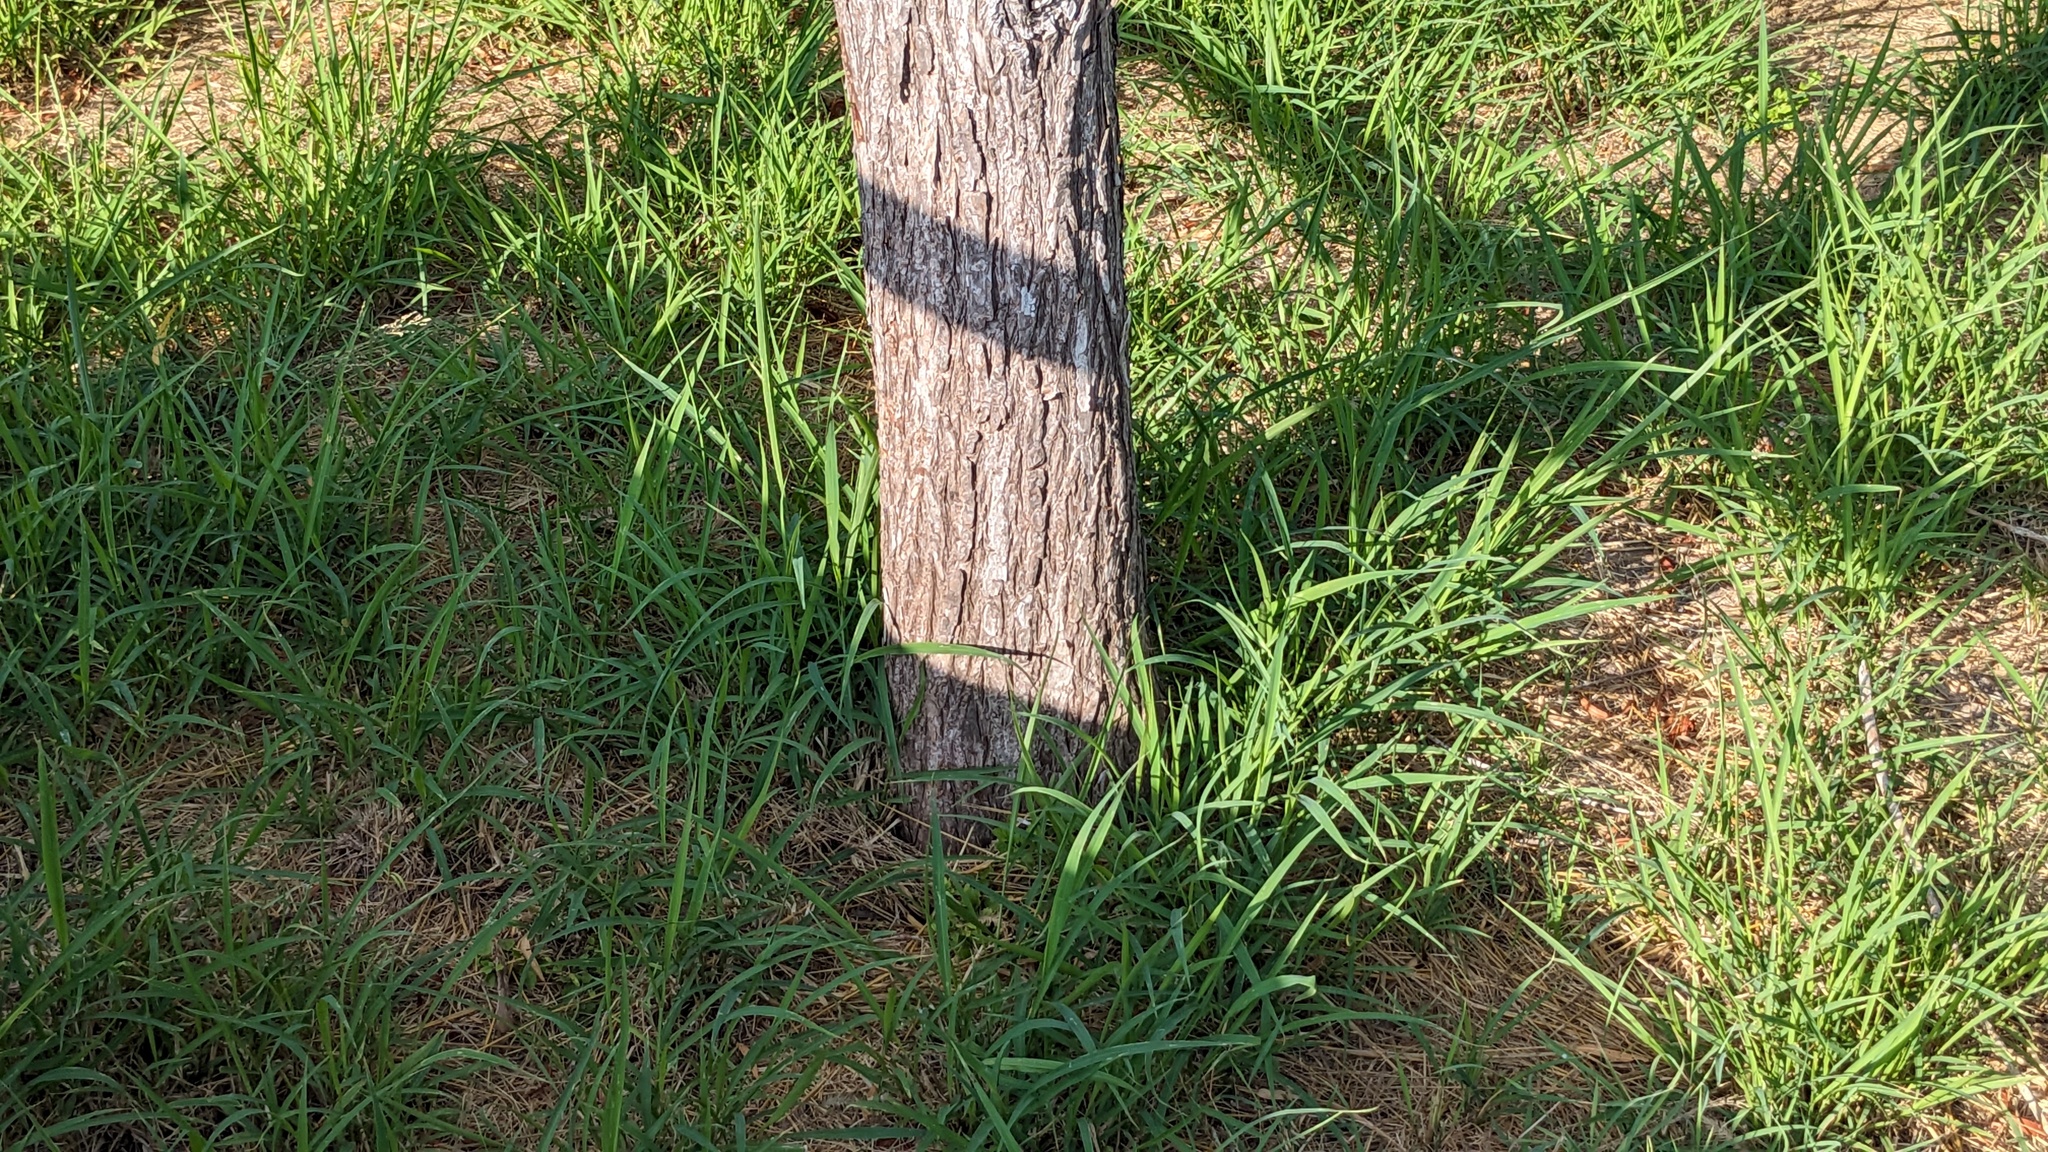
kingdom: Plantae
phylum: Tracheophyta
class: Pinopsida
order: Pinales
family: Cupressaceae
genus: Taxodium
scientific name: Taxodium mucronatum
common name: Montezume bald cypress
